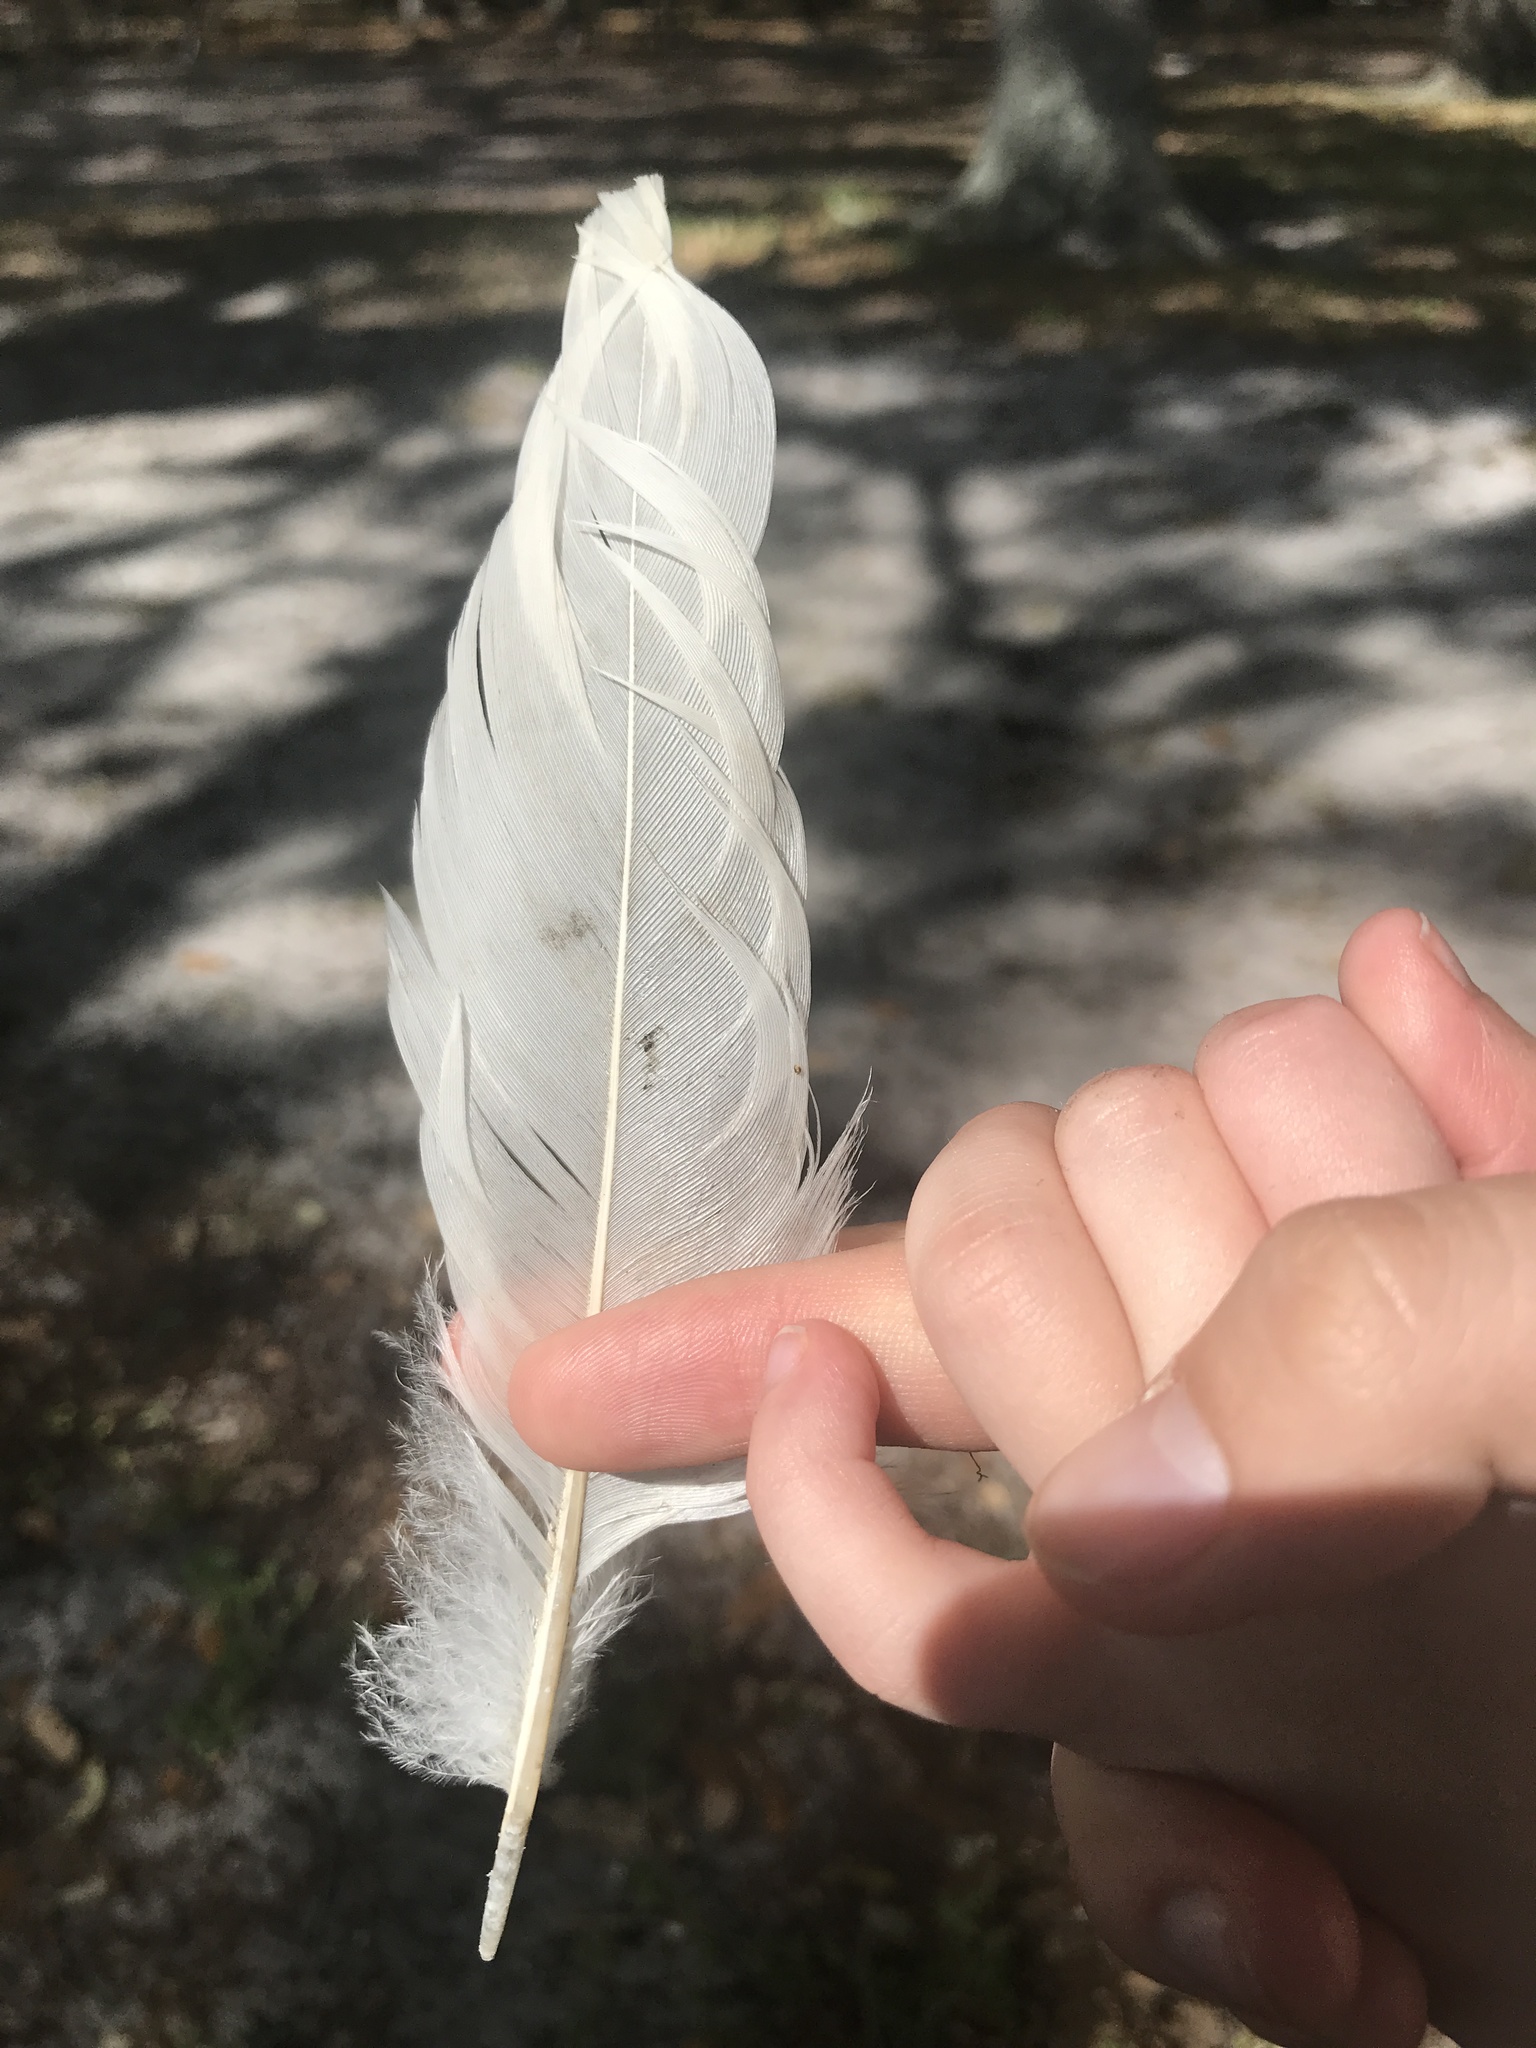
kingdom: Animalia
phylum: Chordata
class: Aves
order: Pelecaniformes
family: Threskiornithidae
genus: Eudocimus
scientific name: Eudocimus albus
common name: White ibis
